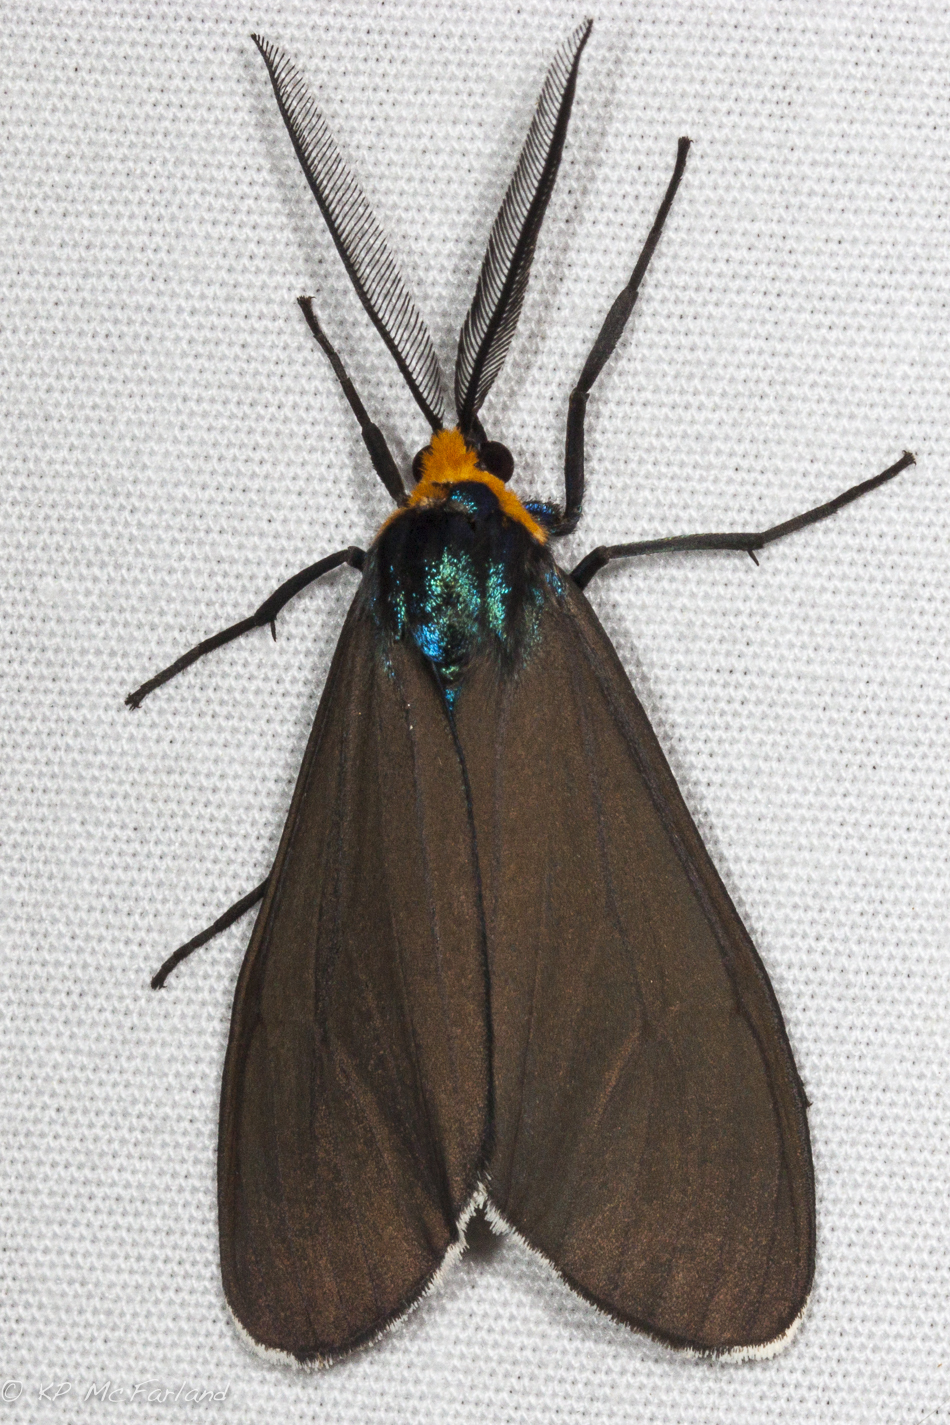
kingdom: Animalia
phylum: Arthropoda
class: Insecta
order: Lepidoptera
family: Erebidae
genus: Ctenucha
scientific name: Ctenucha virginica
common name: Virginia ctenucha moth
